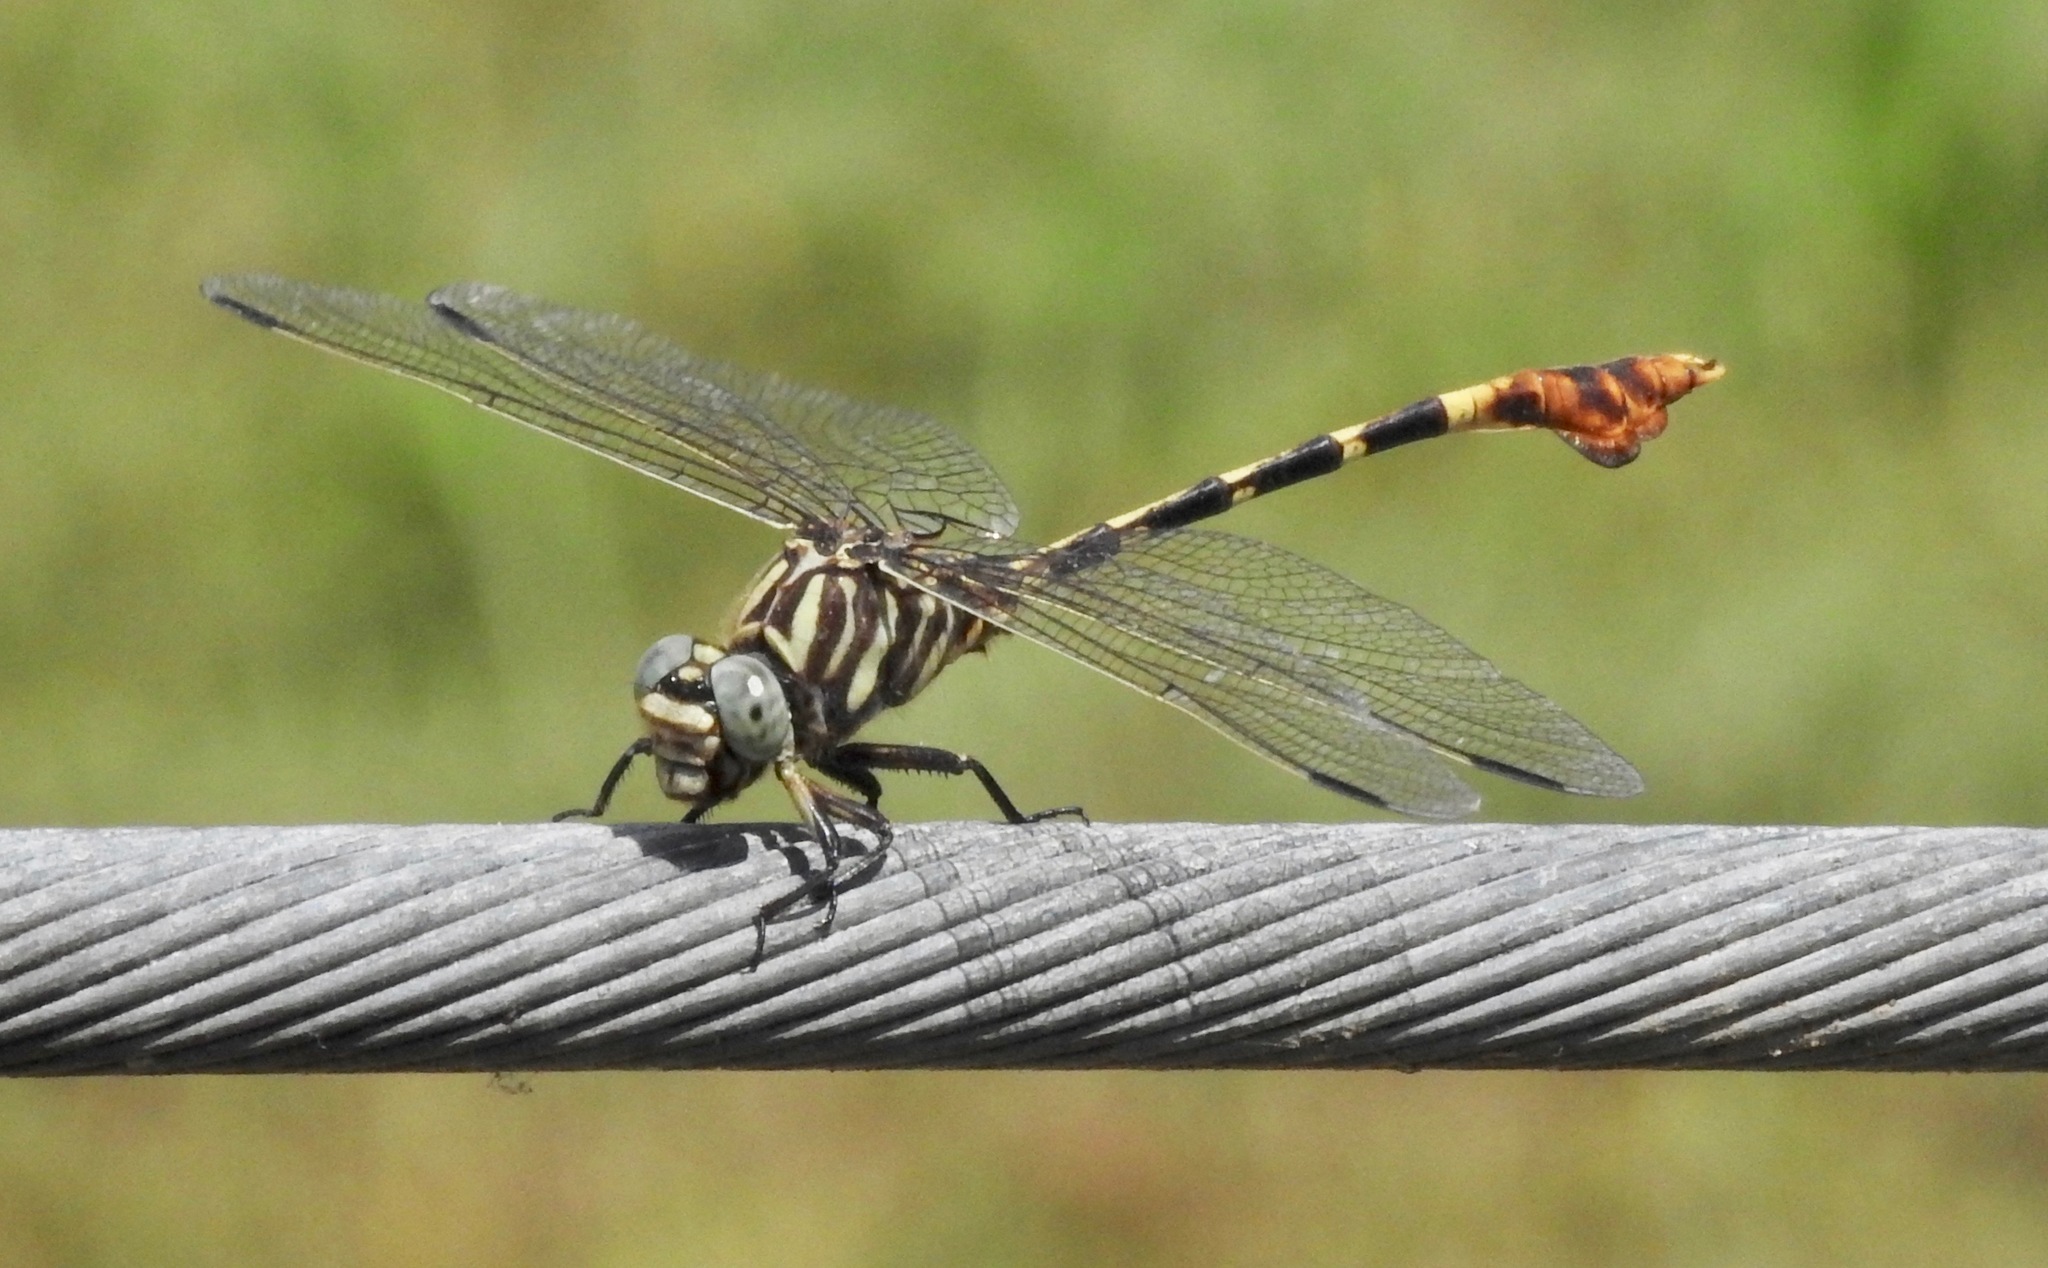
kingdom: Animalia
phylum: Arthropoda
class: Insecta
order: Odonata
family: Gomphidae
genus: Phyllogomphoides
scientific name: Phyllogomphoides albrighti
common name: Five-striped leaftail
